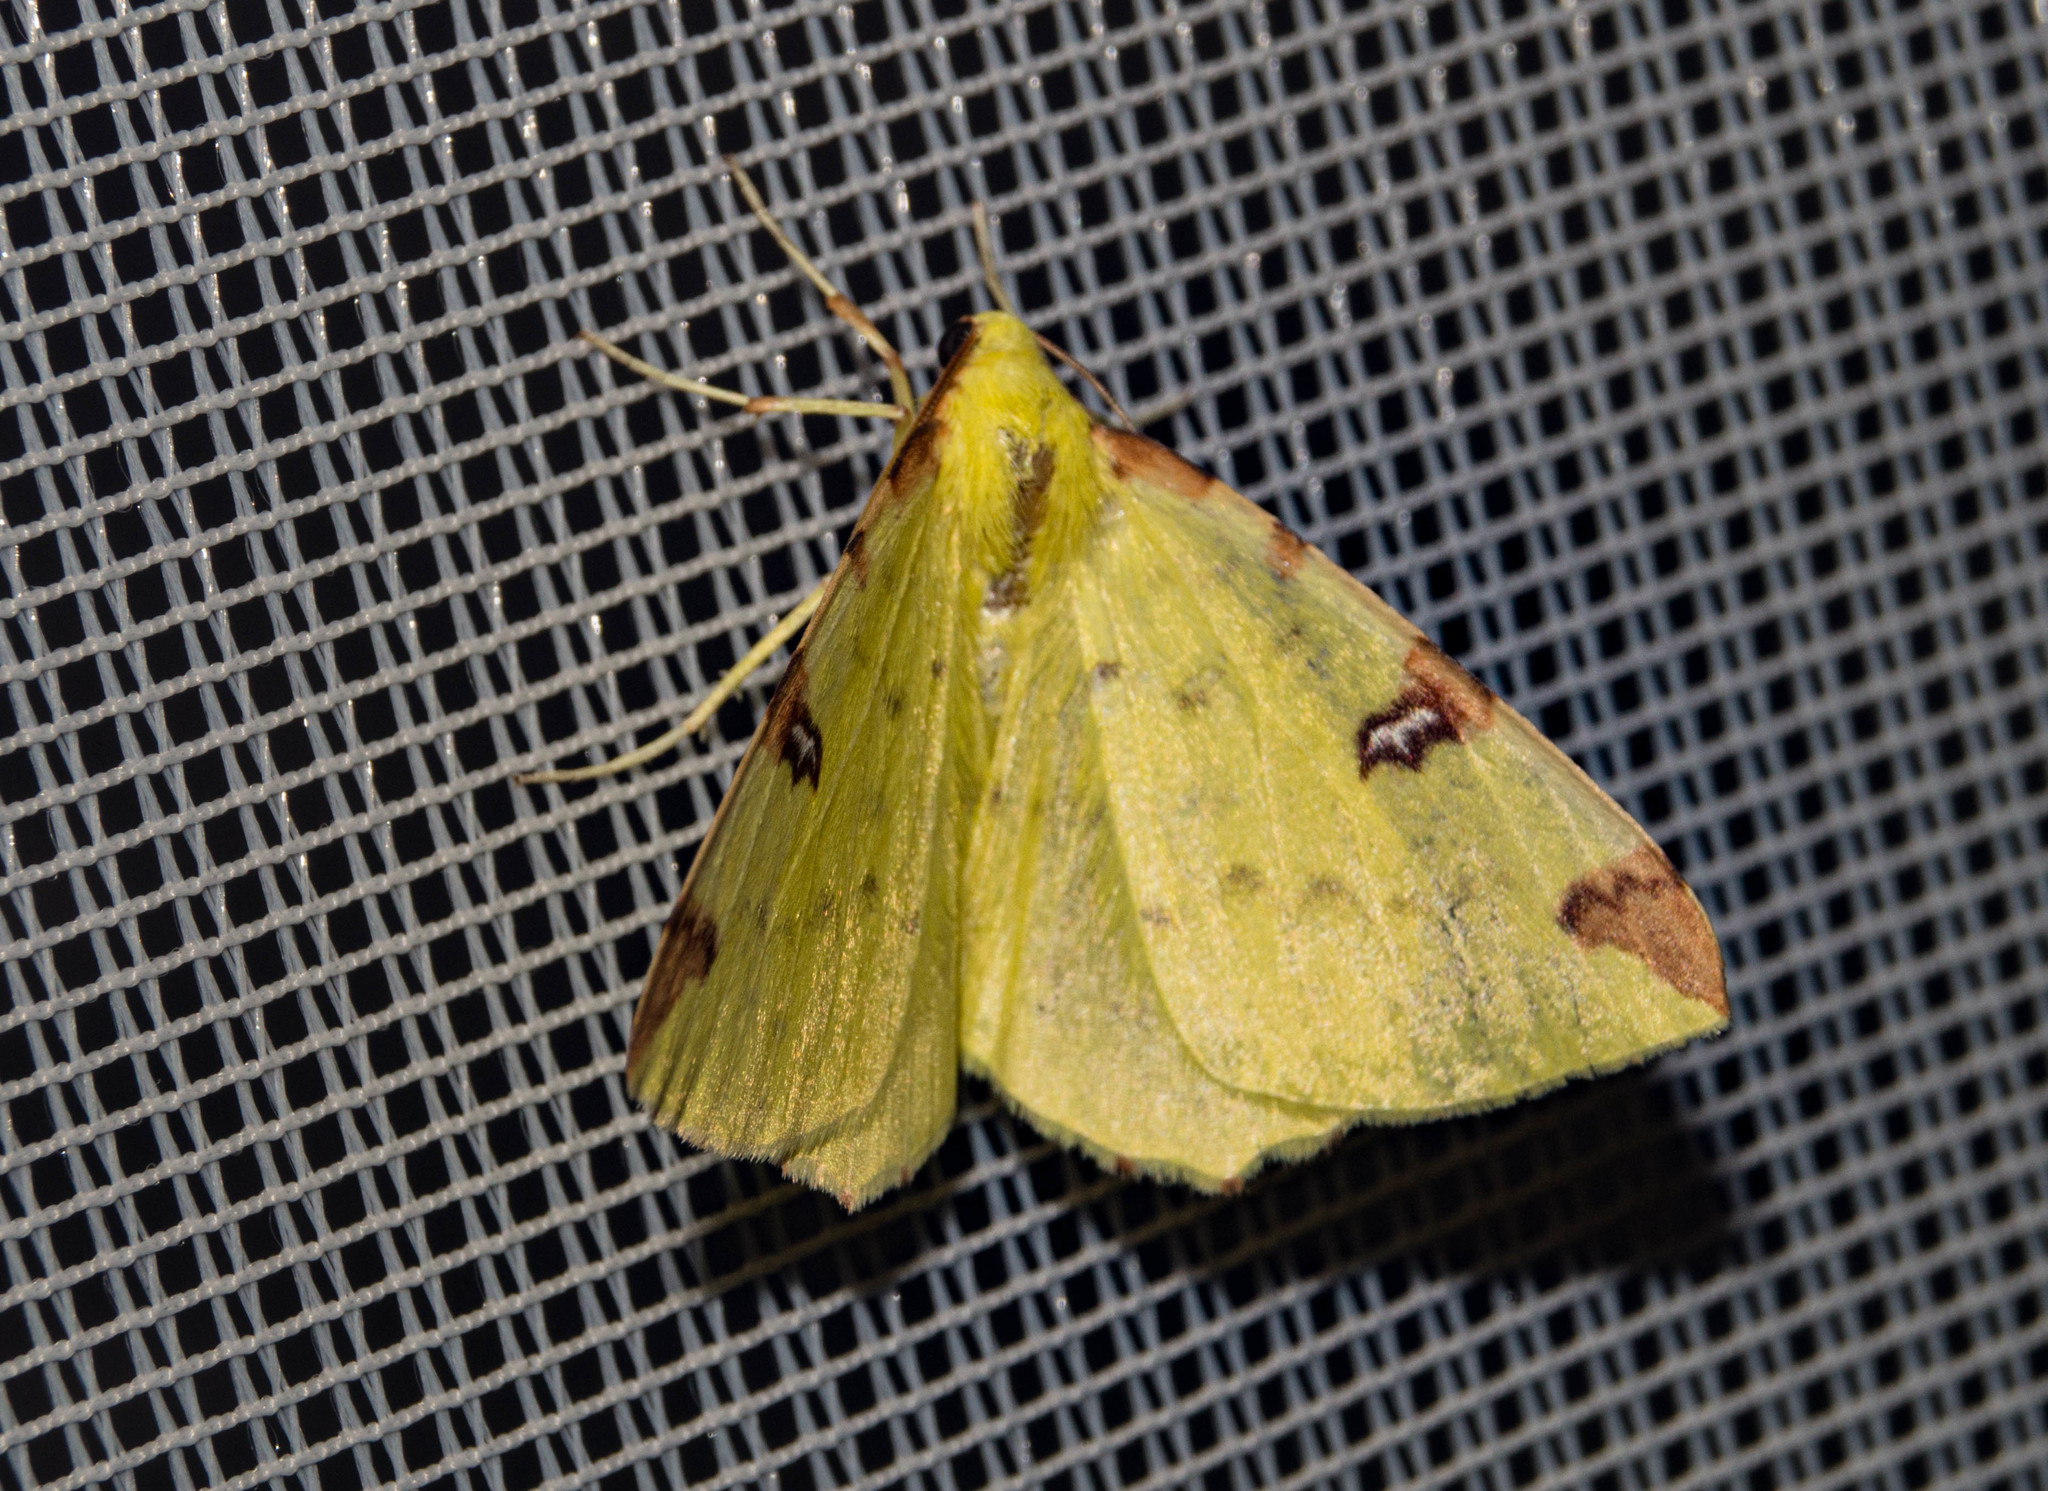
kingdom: Animalia
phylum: Arthropoda
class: Insecta
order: Lepidoptera
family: Geometridae
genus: Opisthograptis
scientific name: Opisthograptis luteolata
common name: Brimstone moth
